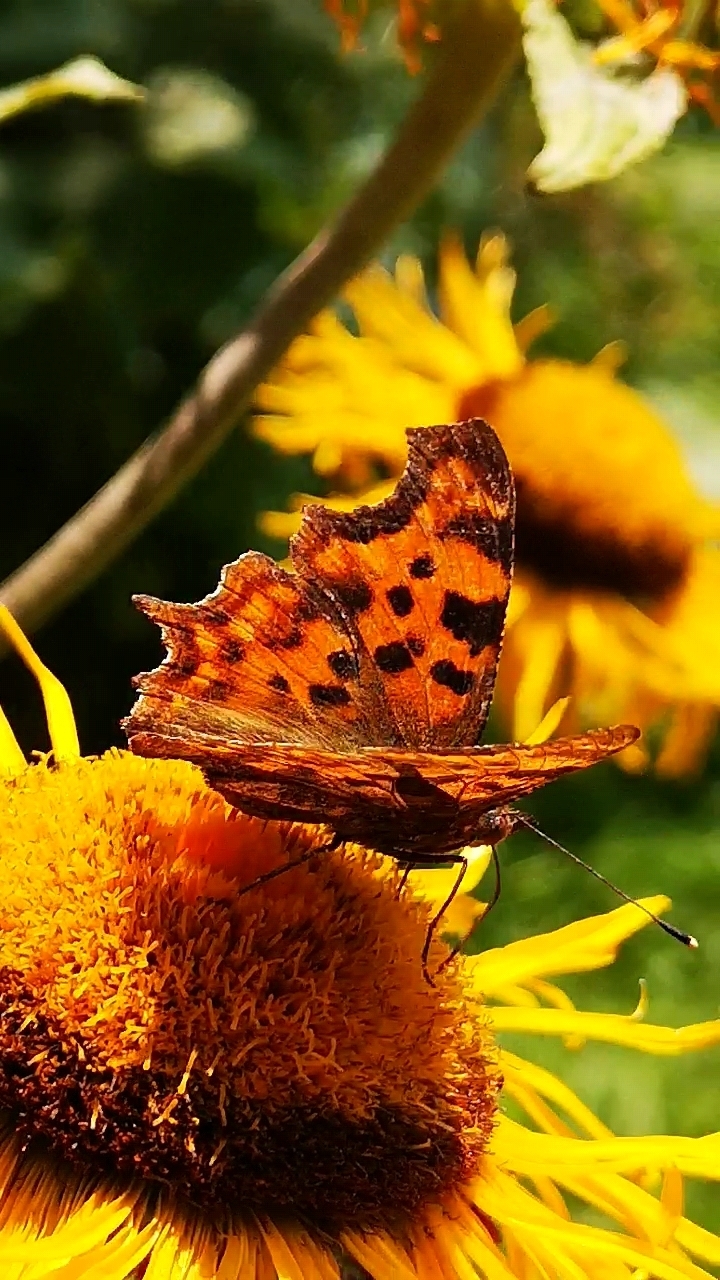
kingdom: Animalia
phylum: Arthropoda
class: Insecta
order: Lepidoptera
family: Nymphalidae
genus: Polygonia
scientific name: Polygonia c-album
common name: Comma
